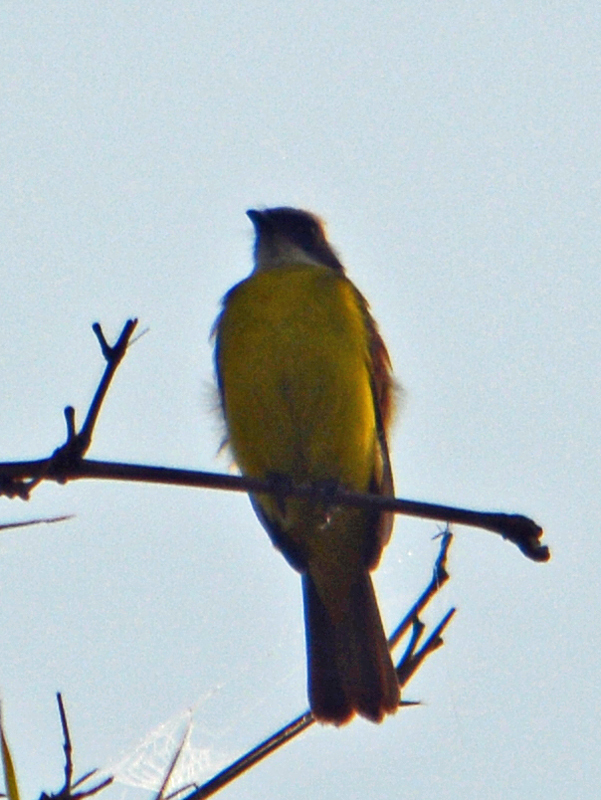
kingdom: Animalia
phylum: Chordata
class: Aves
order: Passeriformes
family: Tyrannidae
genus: Myiozetetes
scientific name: Myiozetetes similis
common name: Social flycatcher
